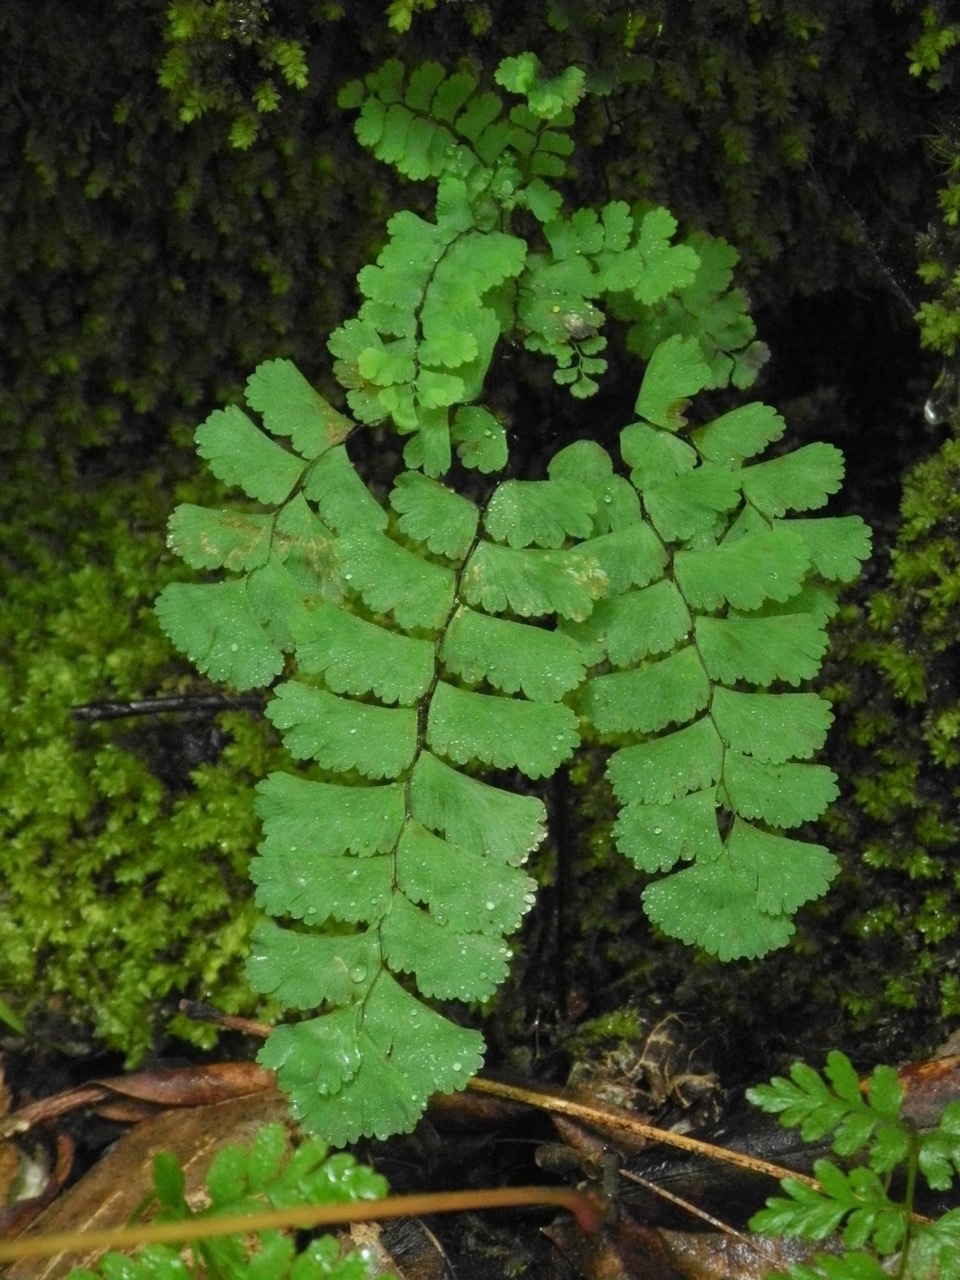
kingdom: Plantae
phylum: Tracheophyta
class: Polypodiopsida
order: Polypodiales
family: Pteridaceae
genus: Adiantum
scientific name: Adiantum pedatum
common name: Five-finger fern
